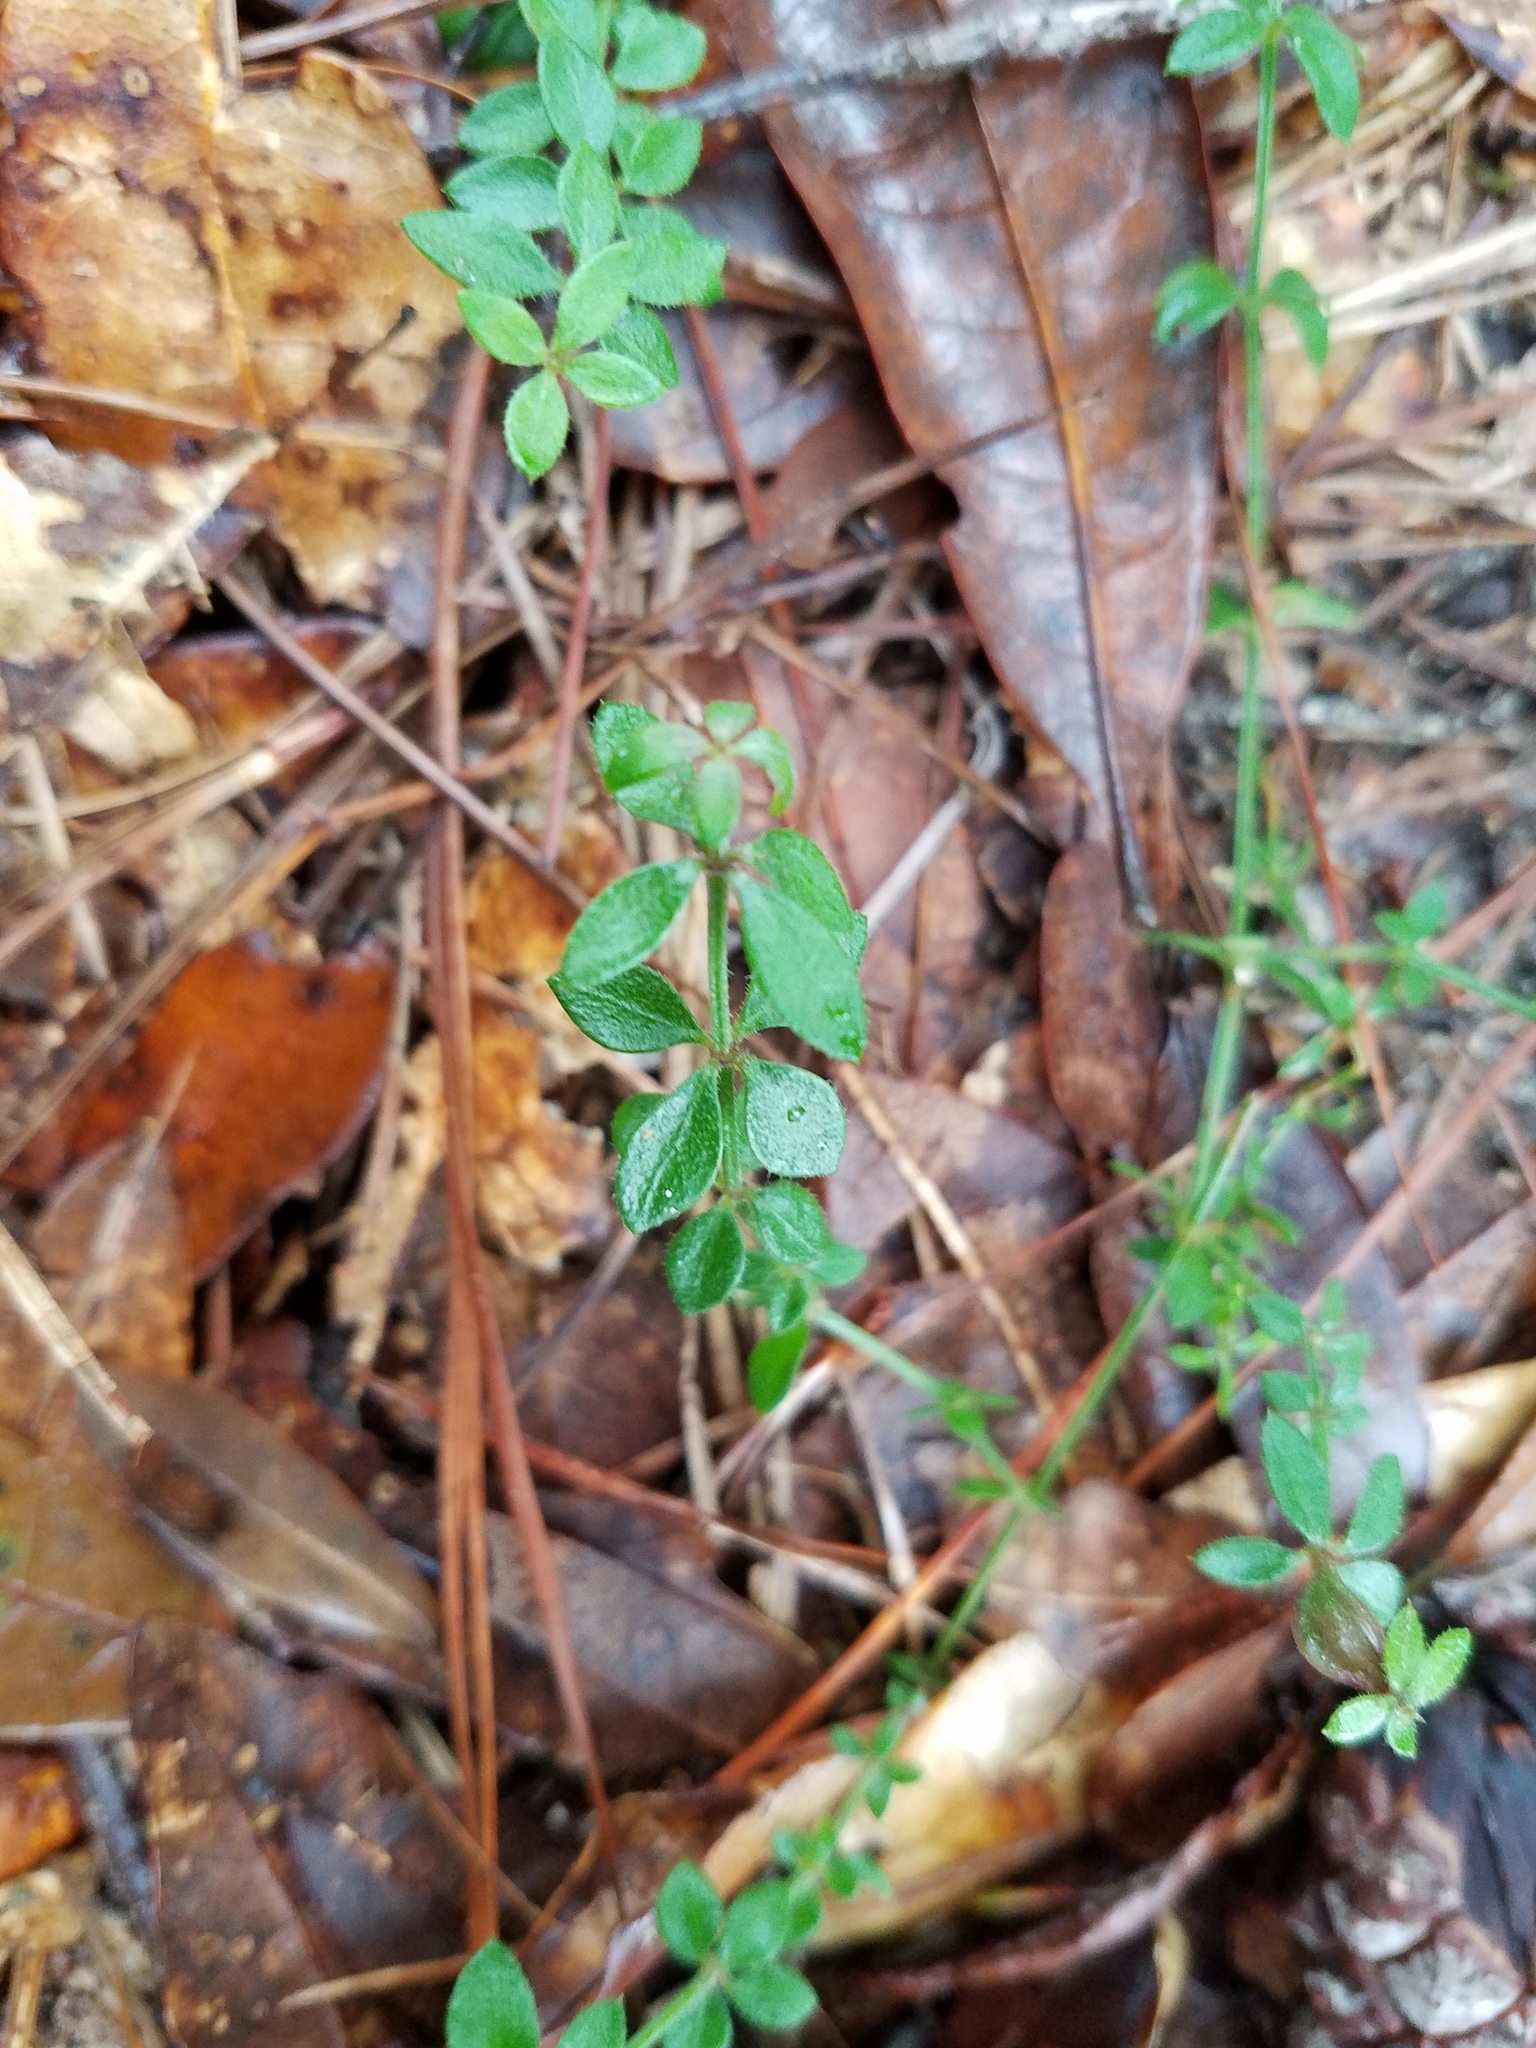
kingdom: Plantae
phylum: Tracheophyta
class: Magnoliopsida
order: Gentianales
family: Rubiaceae
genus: Galium
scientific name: Galium bermudense
